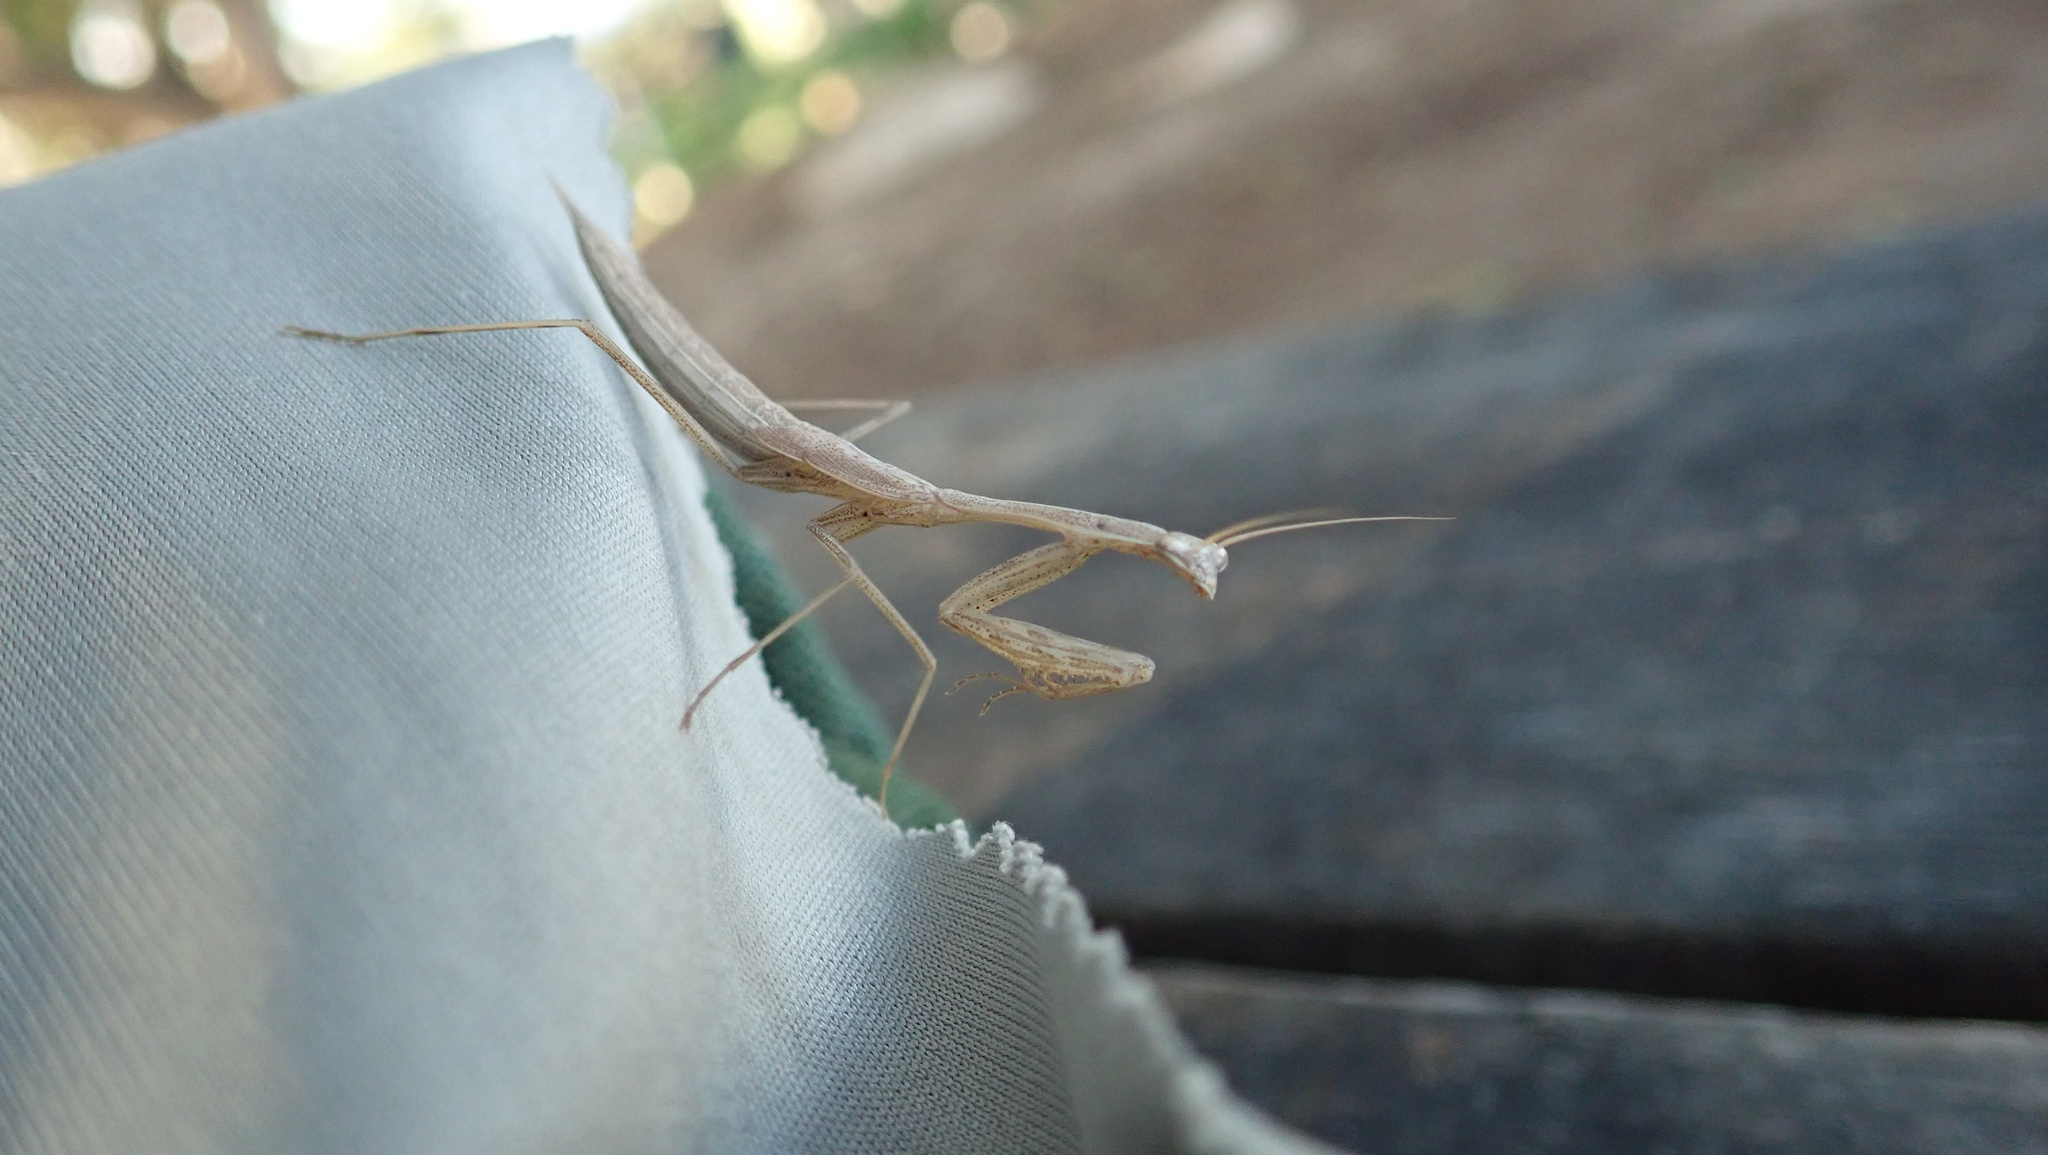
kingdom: Animalia
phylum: Arthropoda
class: Insecta
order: Mantodea
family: Miomantidae
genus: Miomantis
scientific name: Miomantis paykullii
